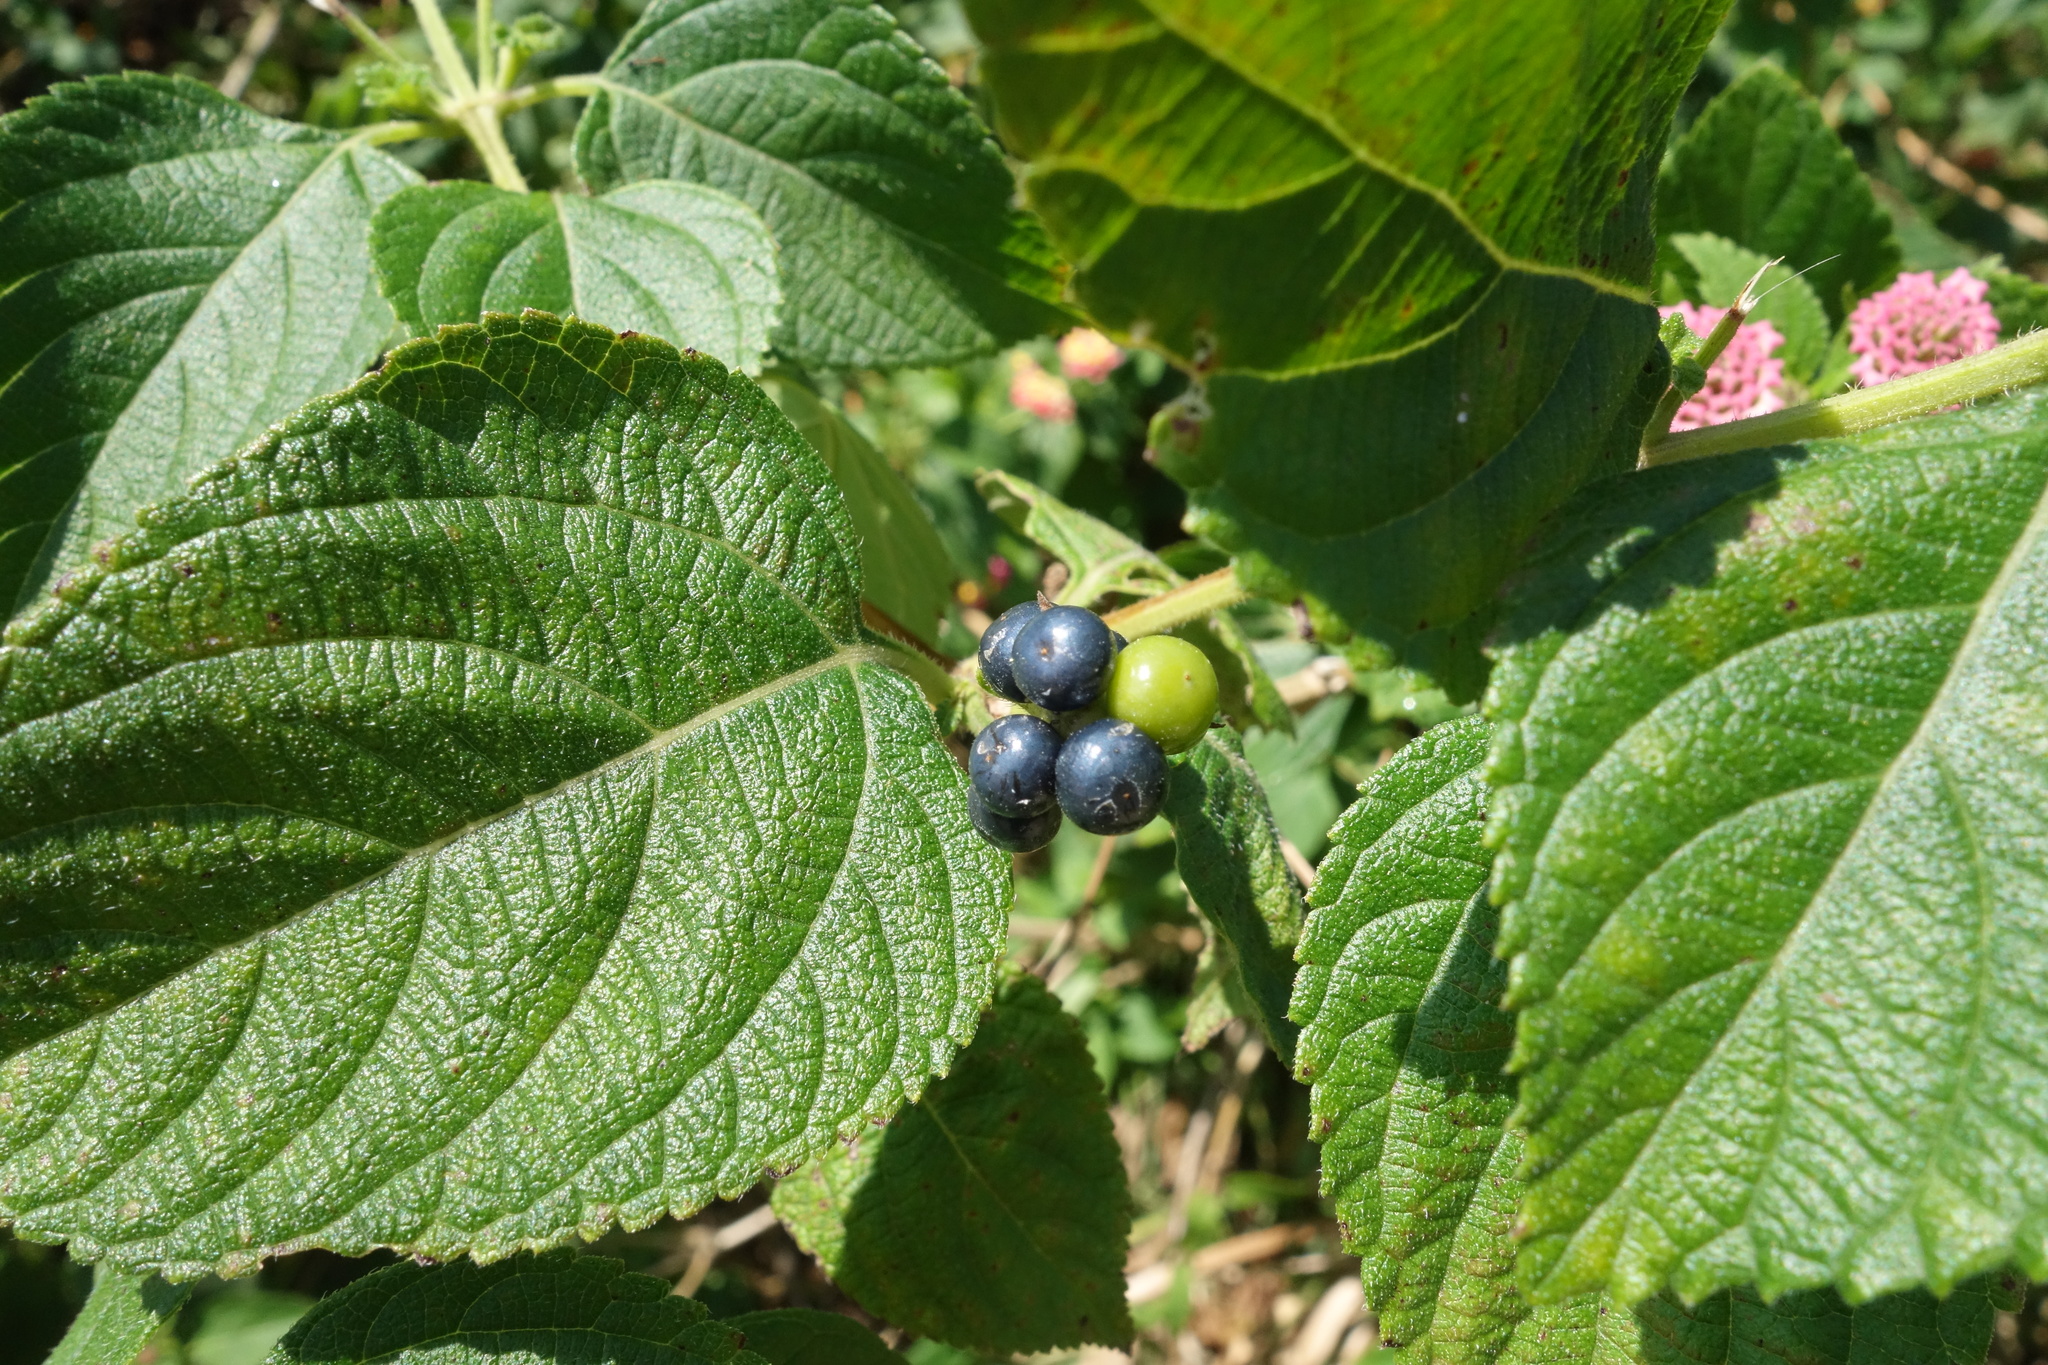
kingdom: Plantae
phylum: Tracheophyta
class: Magnoliopsida
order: Lamiales
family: Verbenaceae
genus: Lantana
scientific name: Lantana camara
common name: Lantana
